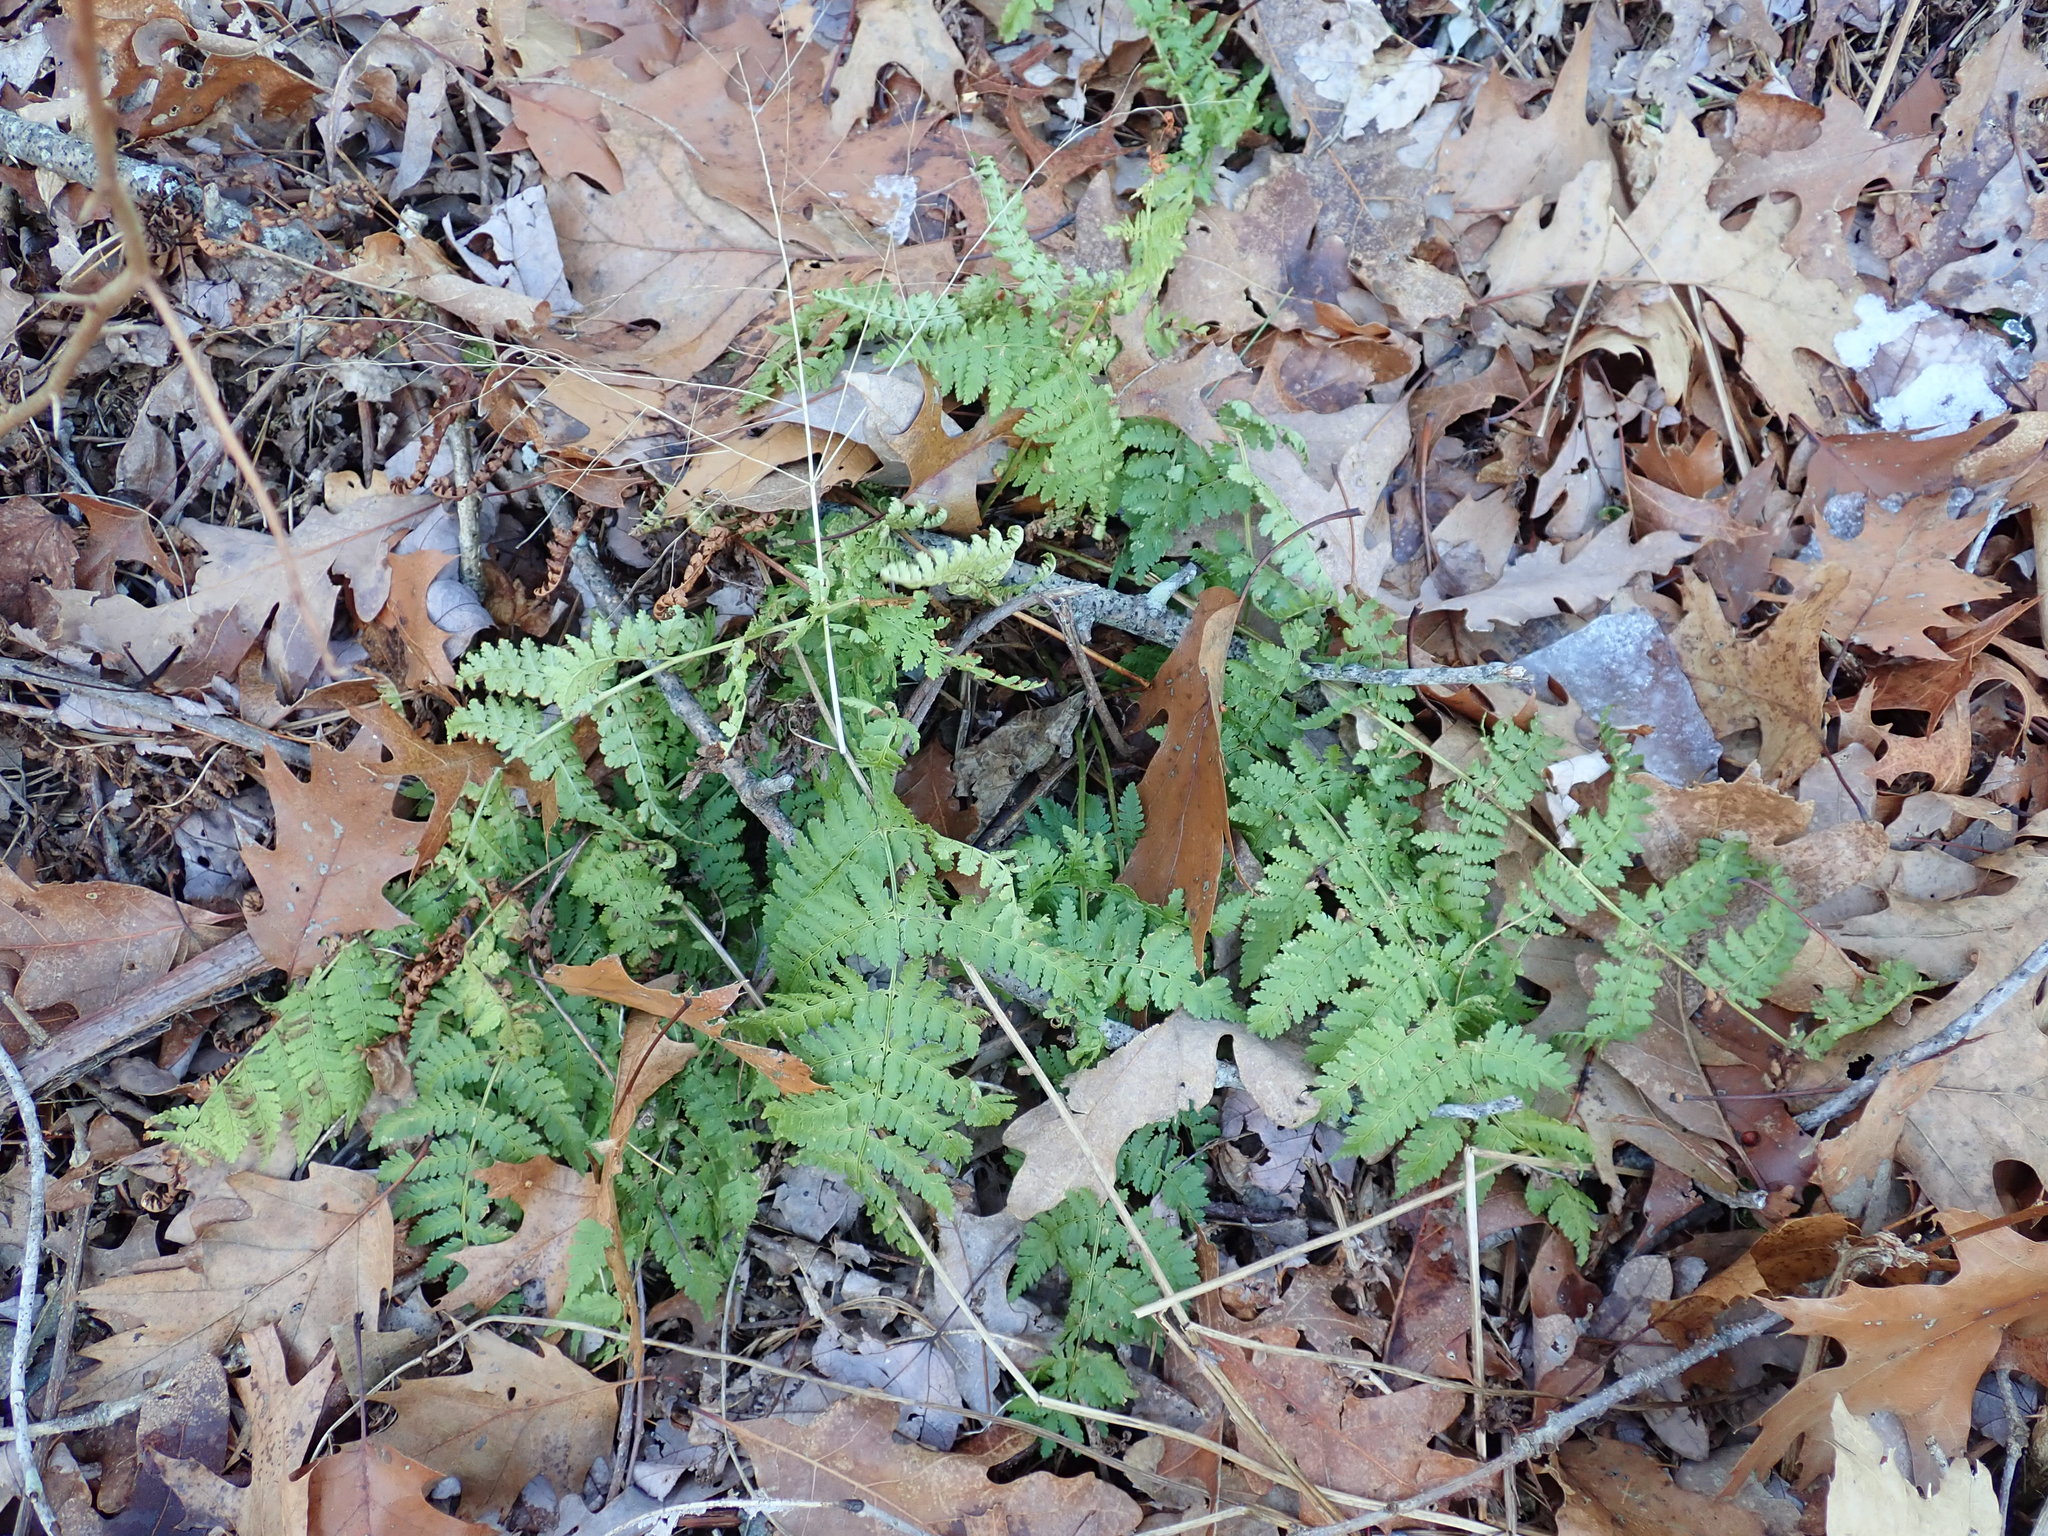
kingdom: Plantae
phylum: Tracheophyta
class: Polypodiopsida
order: Polypodiales
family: Dryopteridaceae
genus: Dryopteris
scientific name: Dryopteris intermedia
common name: Evergreen wood fern
